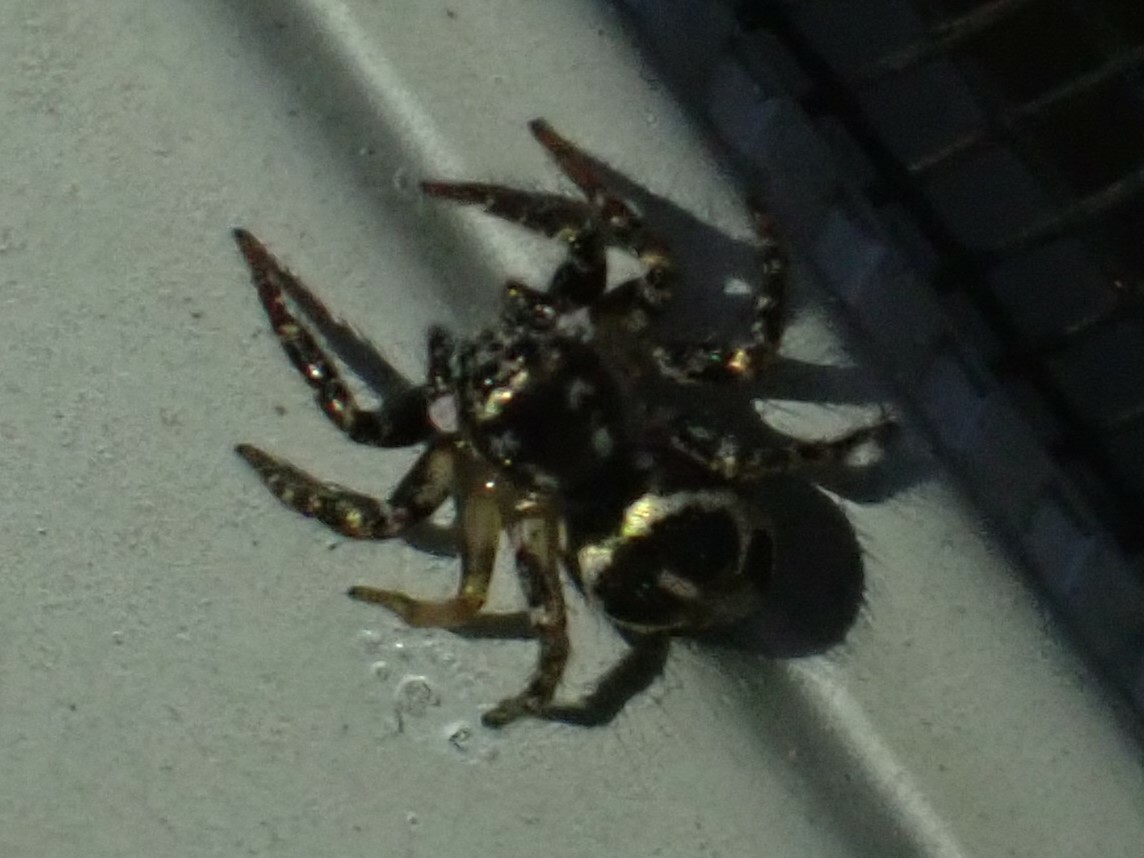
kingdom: Animalia
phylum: Arthropoda
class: Arachnida
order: Araneae
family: Salticidae
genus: Anasaitis
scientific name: Anasaitis canosa
